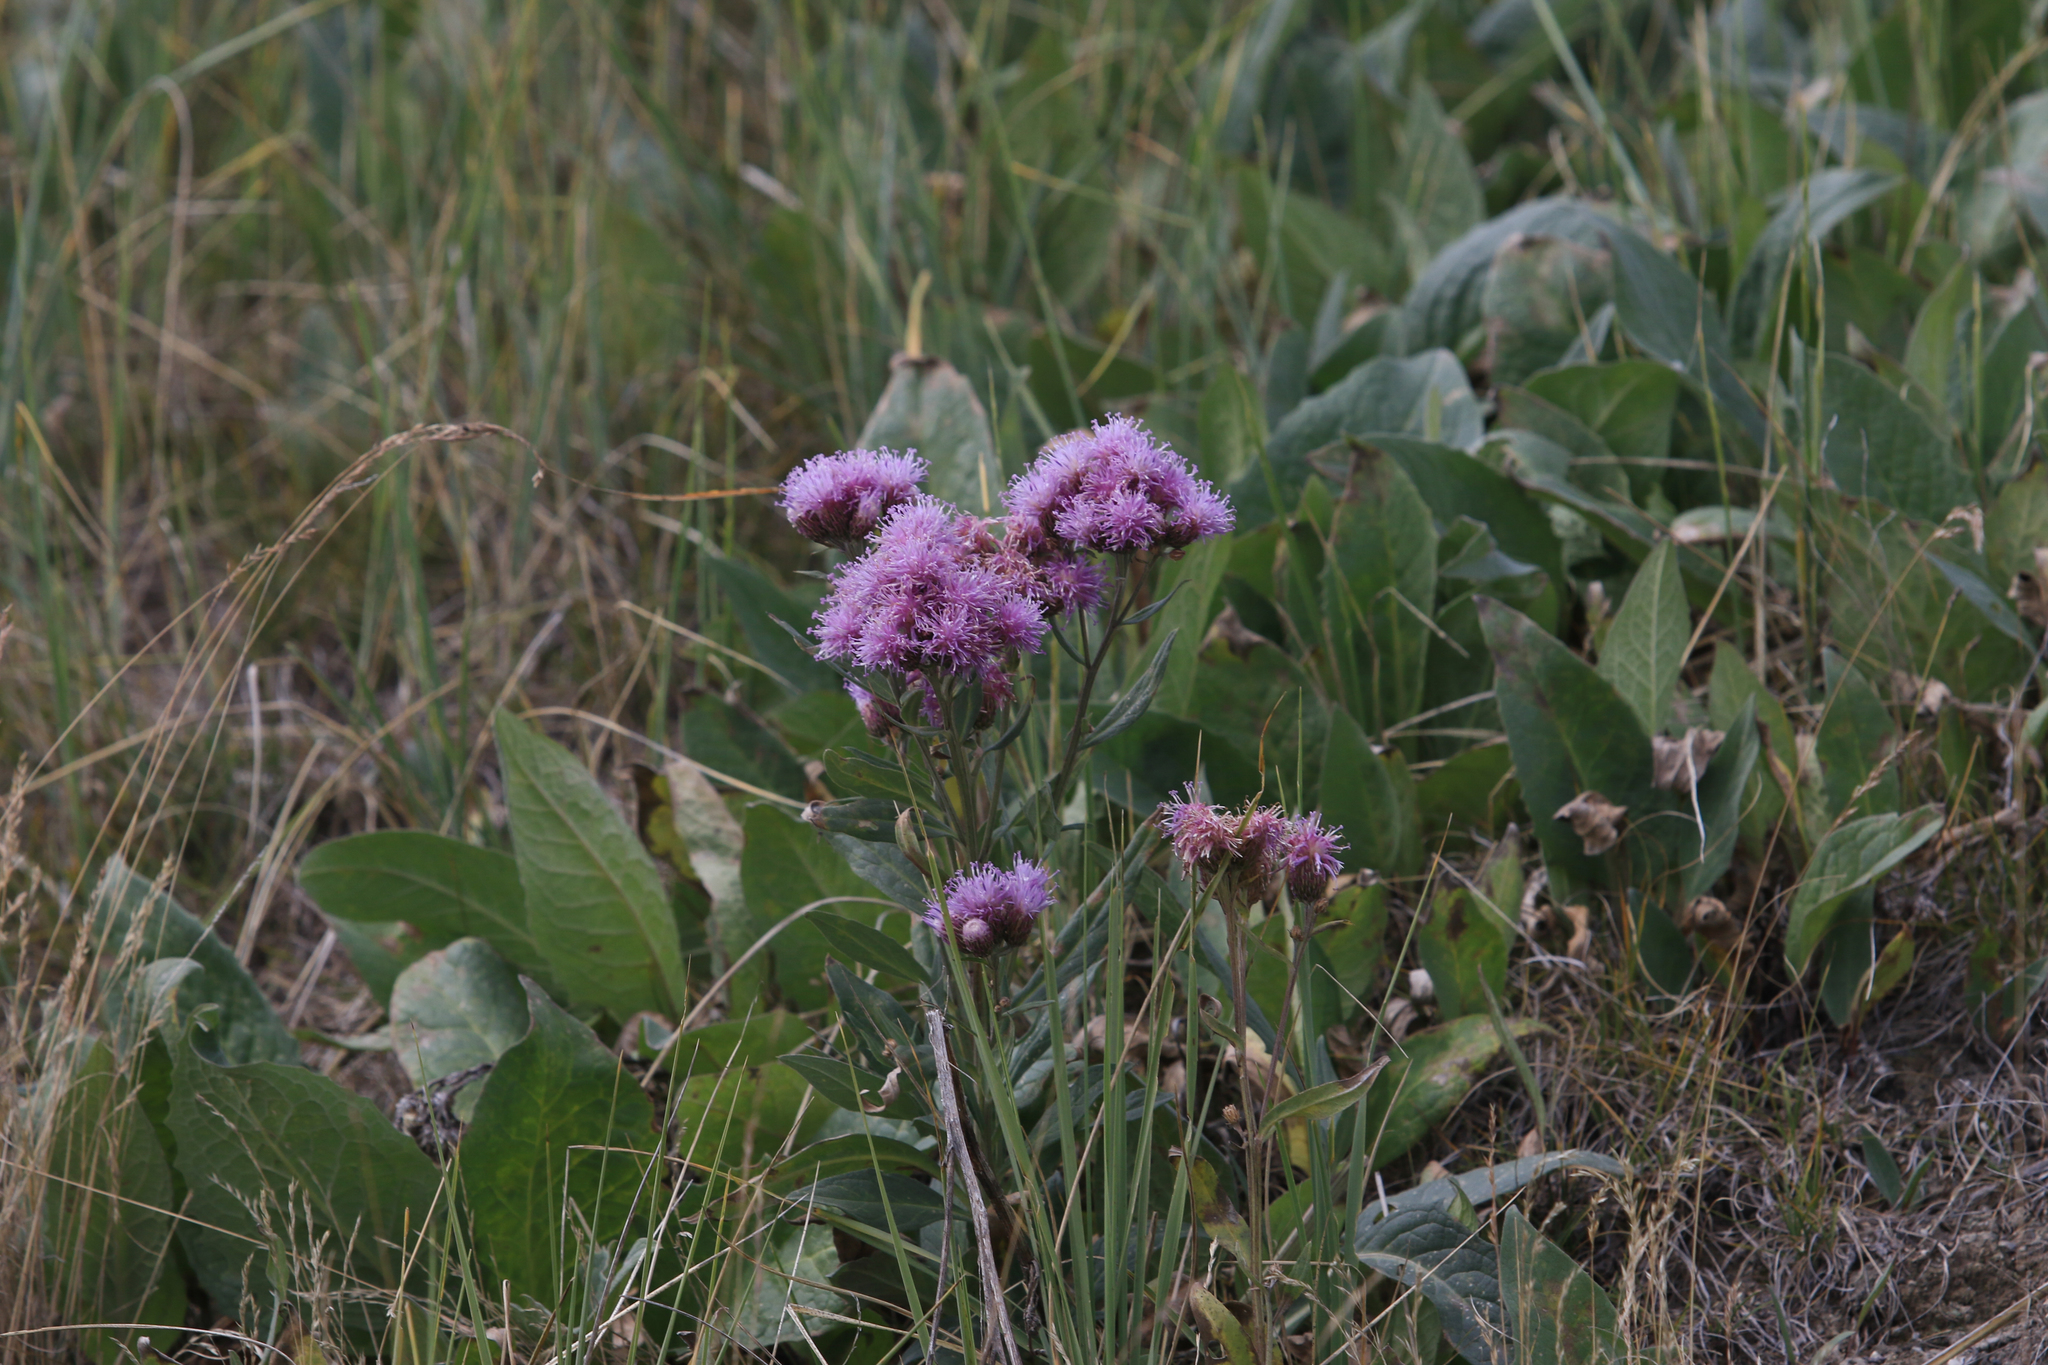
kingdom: Plantae
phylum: Tracheophyta
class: Magnoliopsida
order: Asterales
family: Asteraceae
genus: Saussurea
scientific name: Saussurea amara
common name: Alberta sawwort
